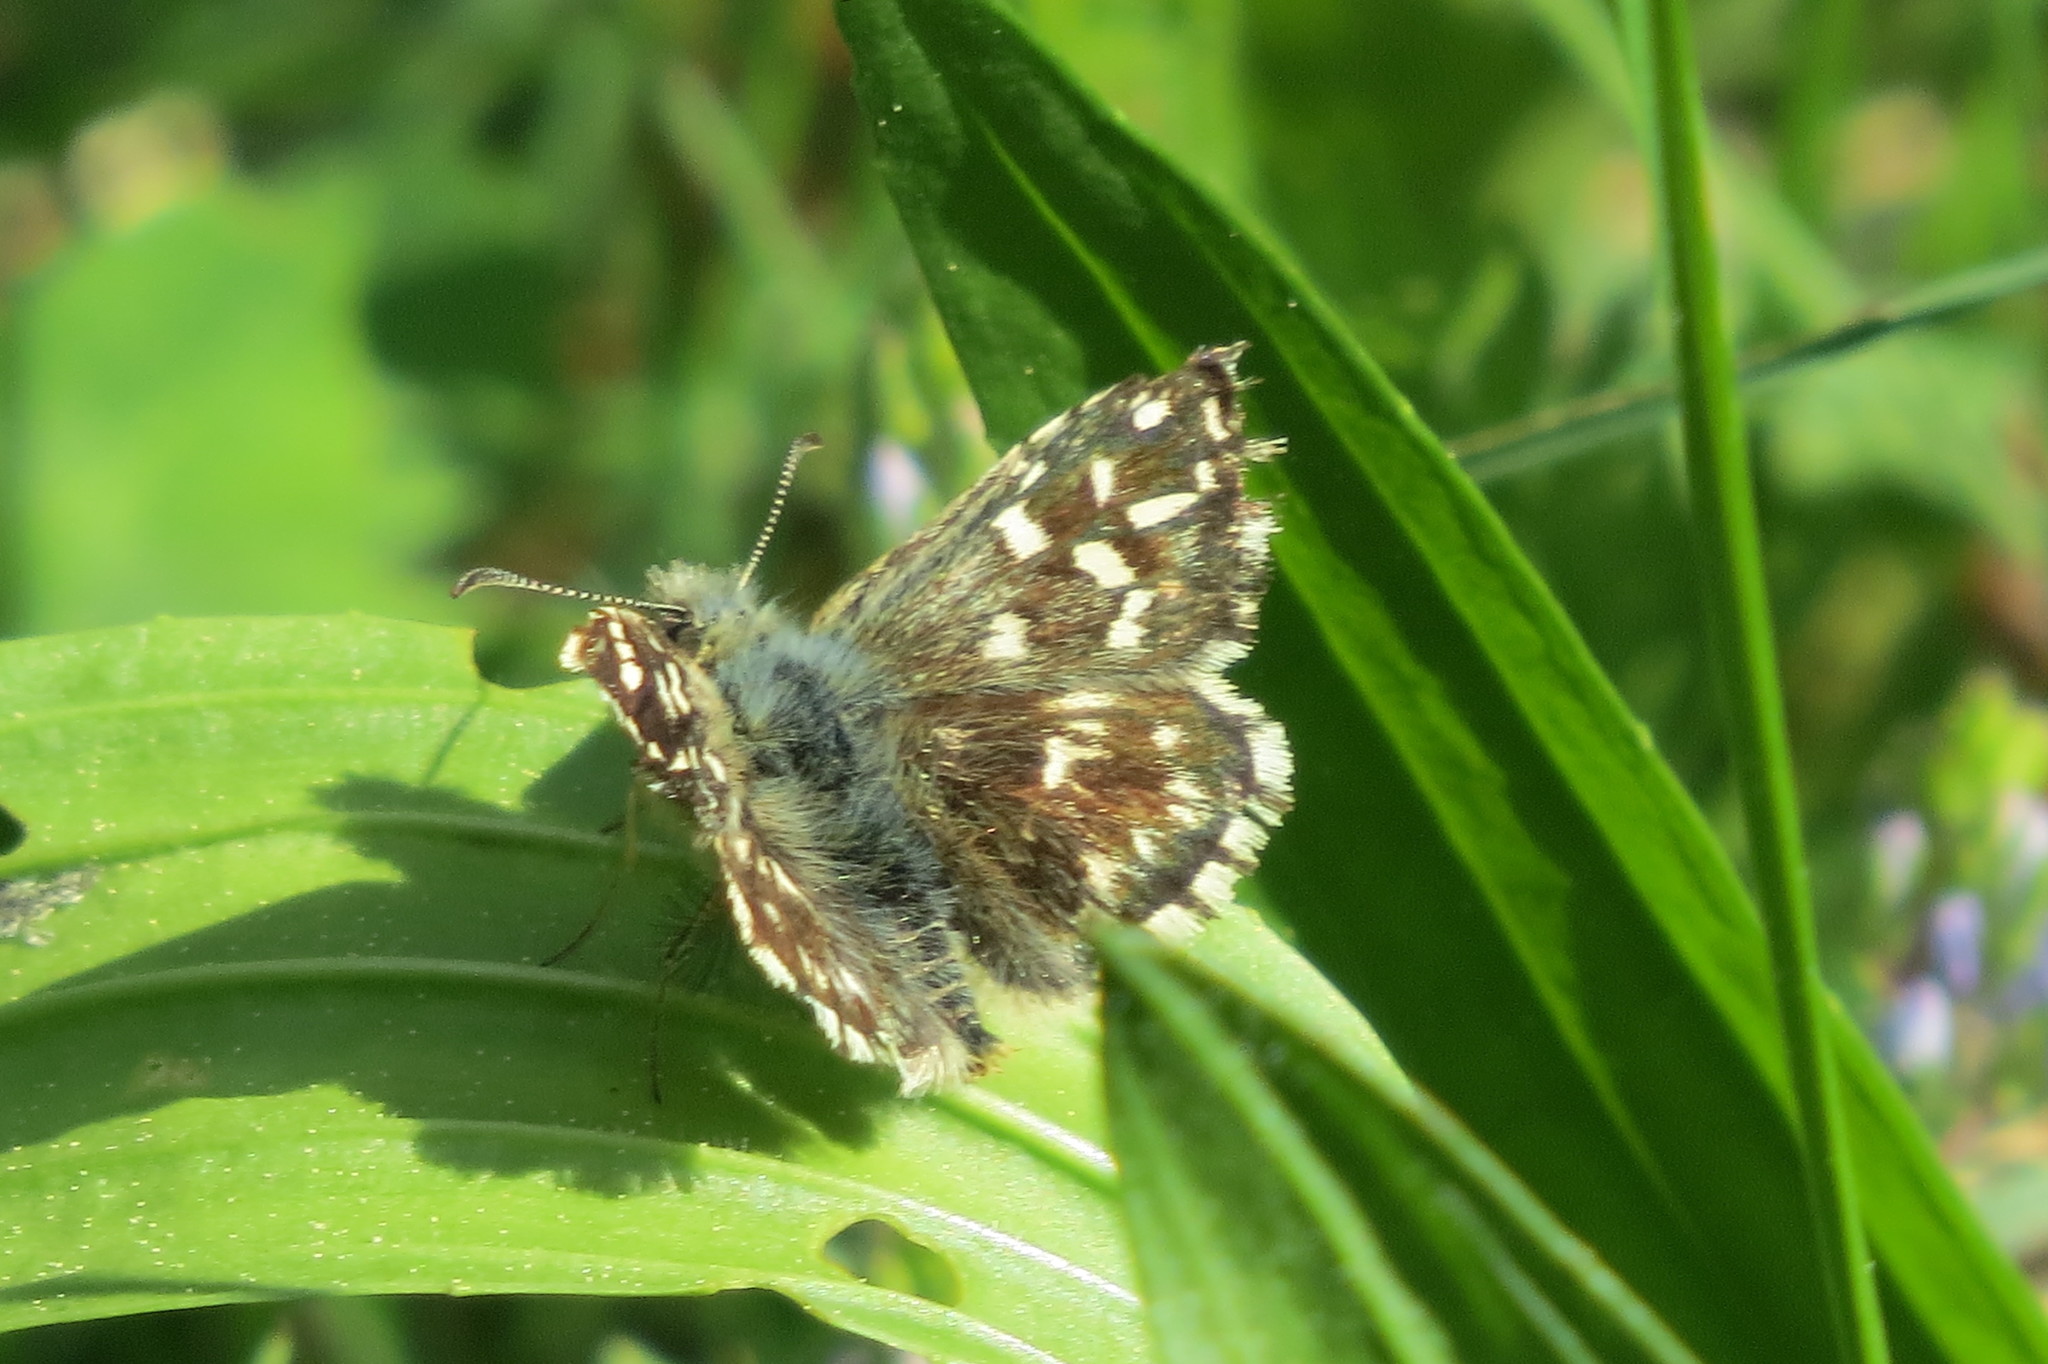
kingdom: Animalia
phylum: Arthropoda
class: Insecta
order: Lepidoptera
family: Hesperiidae
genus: Pyrgus
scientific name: Pyrgus malvoides
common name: Southern grizzled skipper
